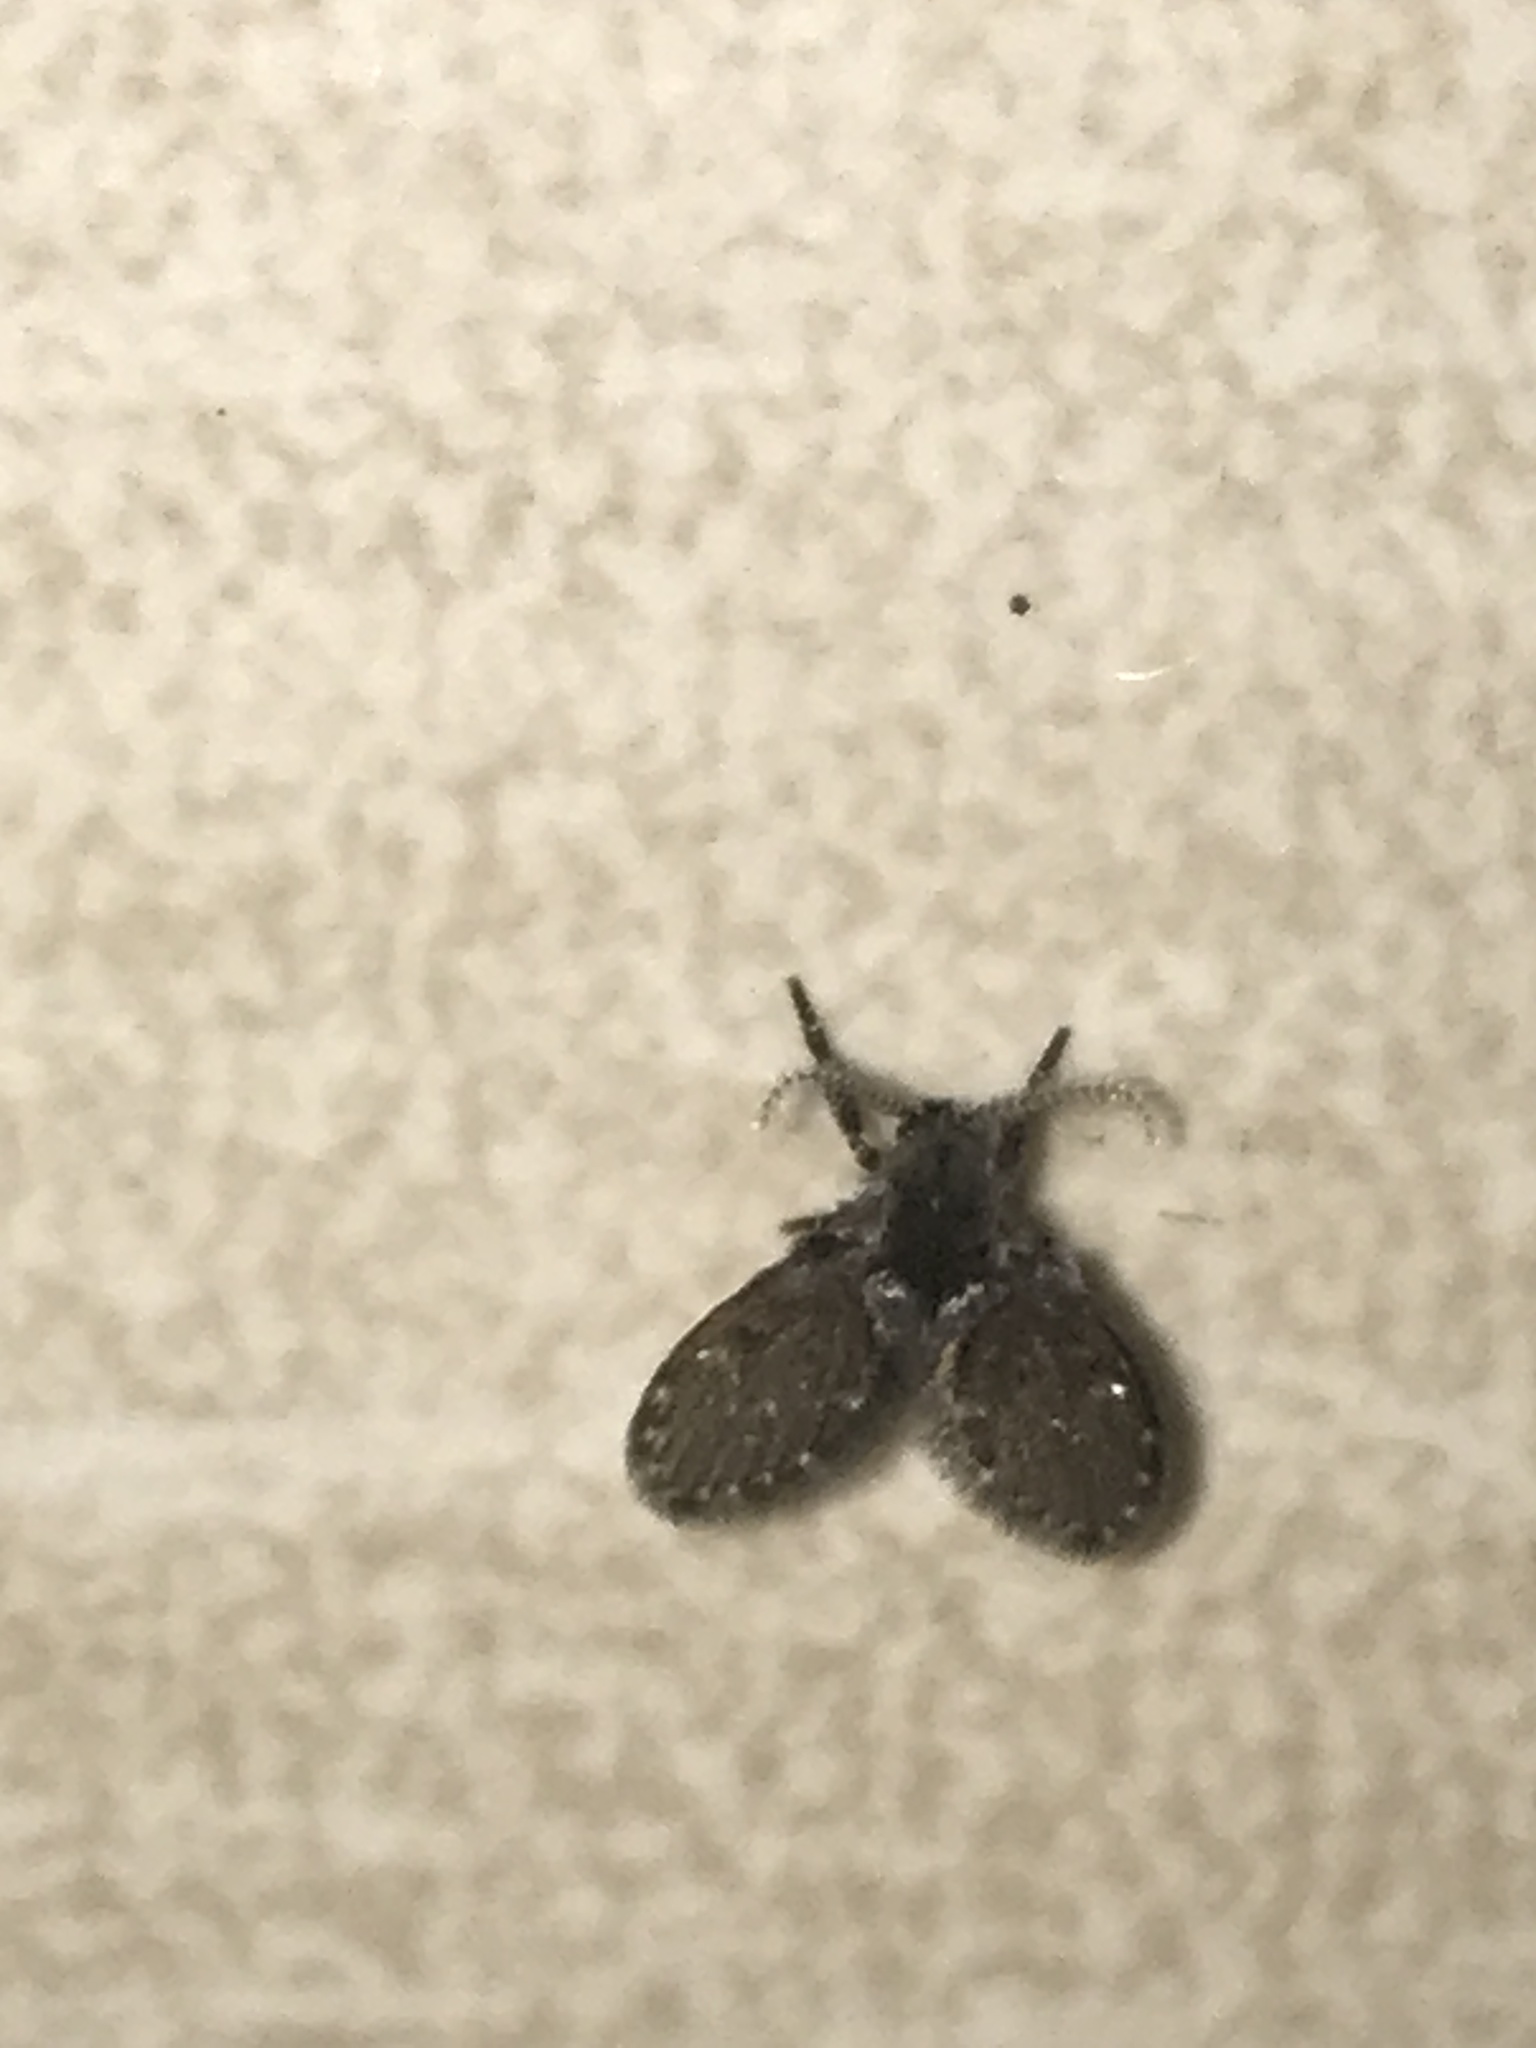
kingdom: Animalia
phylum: Arthropoda
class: Insecta
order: Diptera
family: Psychodidae
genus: Clogmia
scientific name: Clogmia albipunctatus
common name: White-spotted moth fly
